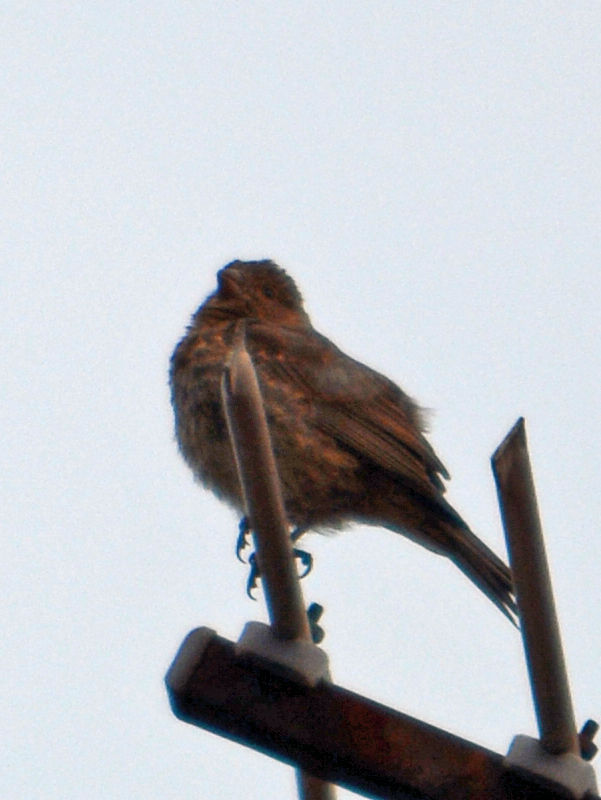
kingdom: Animalia
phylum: Chordata
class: Aves
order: Passeriformes
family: Fringillidae
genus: Haemorhous
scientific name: Haemorhous mexicanus
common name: House finch
